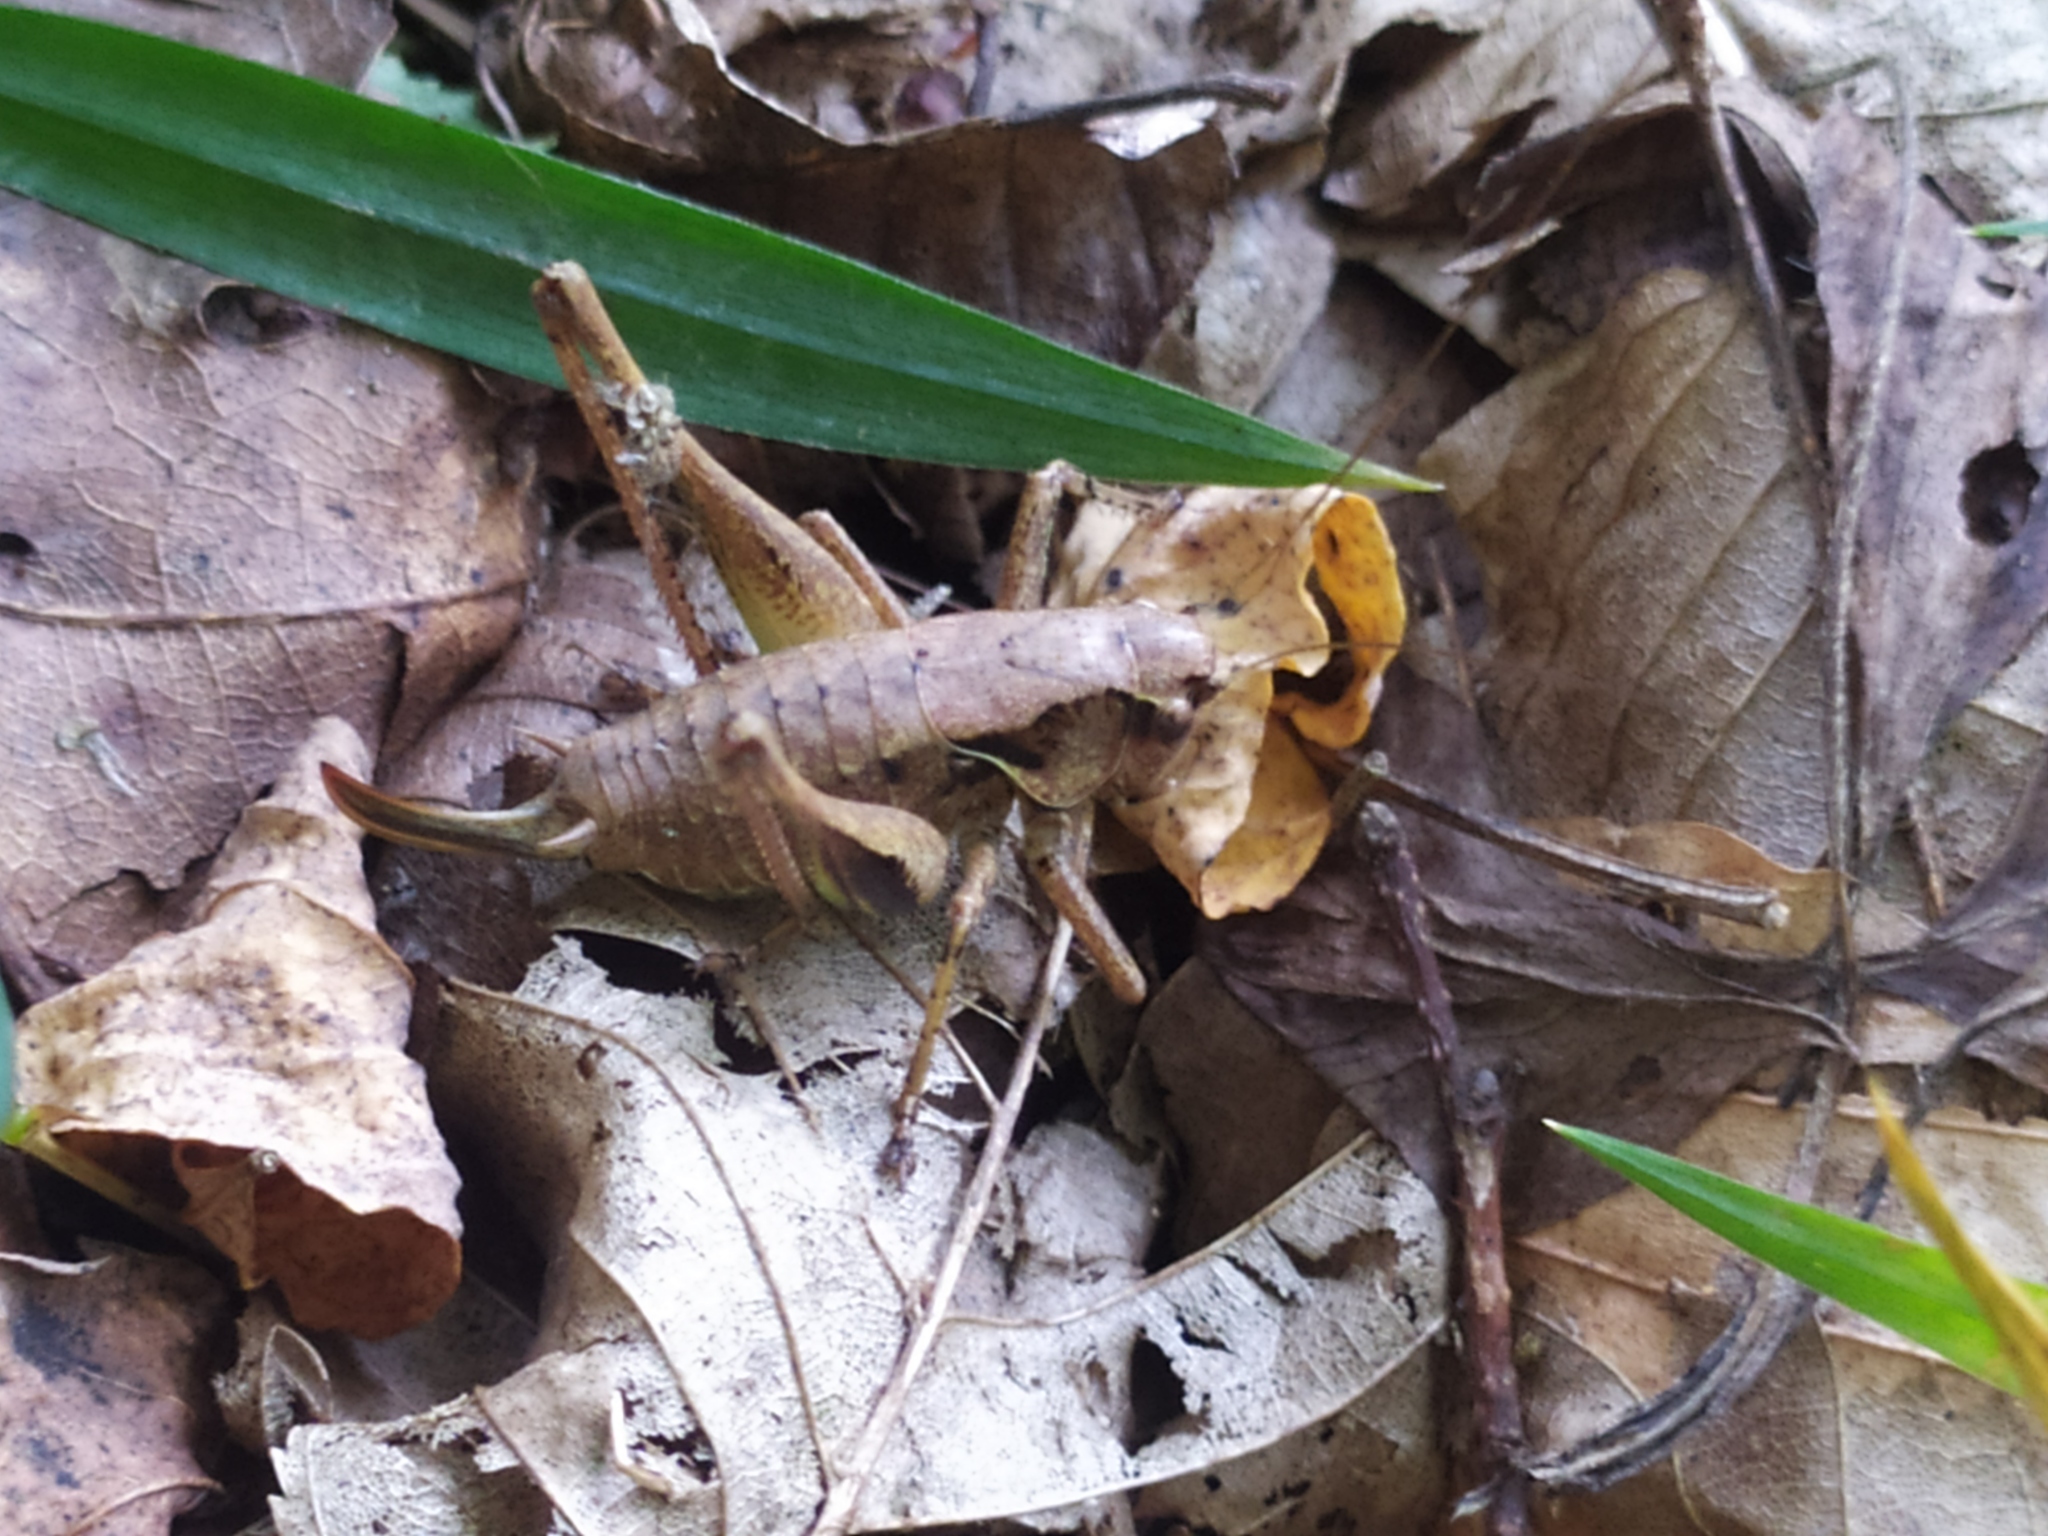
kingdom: Animalia
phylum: Arthropoda
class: Insecta
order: Orthoptera
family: Tettigoniidae
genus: Pholidoptera
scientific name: Pholidoptera griseoaptera
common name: Dark bush-cricket
